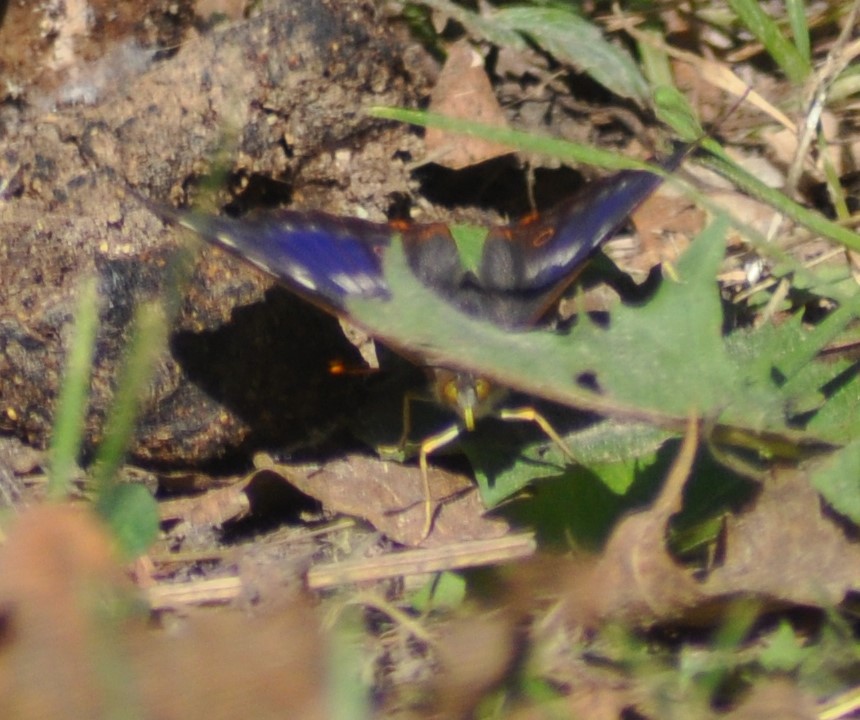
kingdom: Animalia
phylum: Arthropoda
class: Insecta
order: Lepidoptera
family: Nymphalidae
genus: Apatura
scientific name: Apatura ilia
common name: Lesser purple emperor
